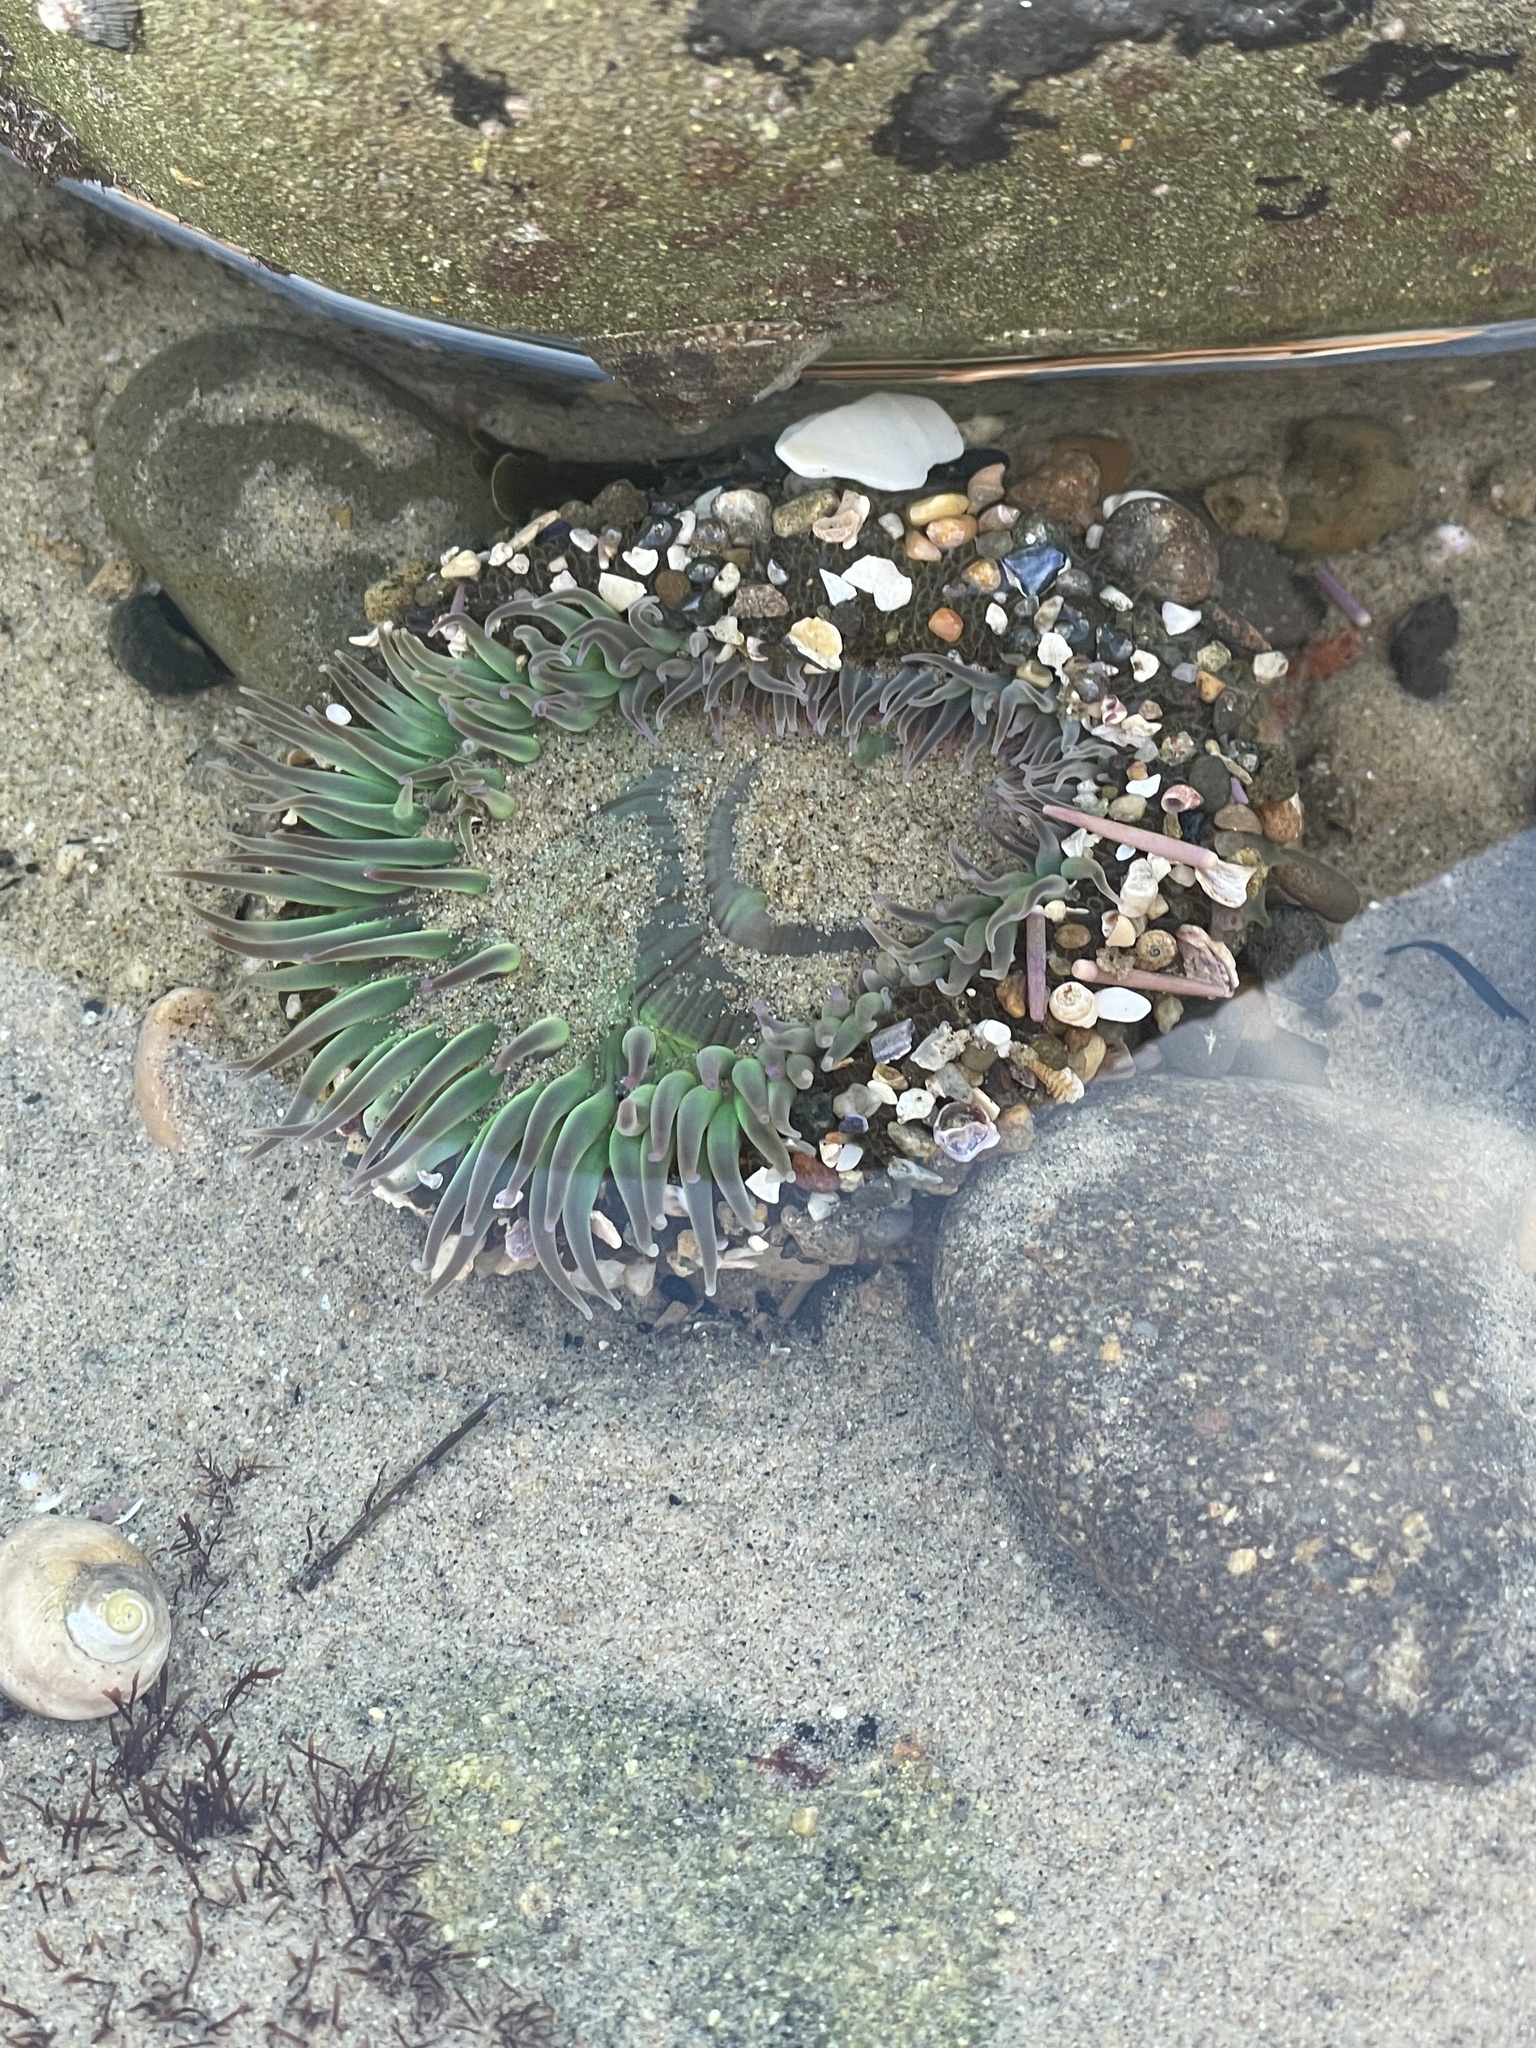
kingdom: Animalia
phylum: Cnidaria
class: Anthozoa
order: Actiniaria
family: Actiniidae
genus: Anthopleura
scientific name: Anthopleura sola
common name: Sun anemone
